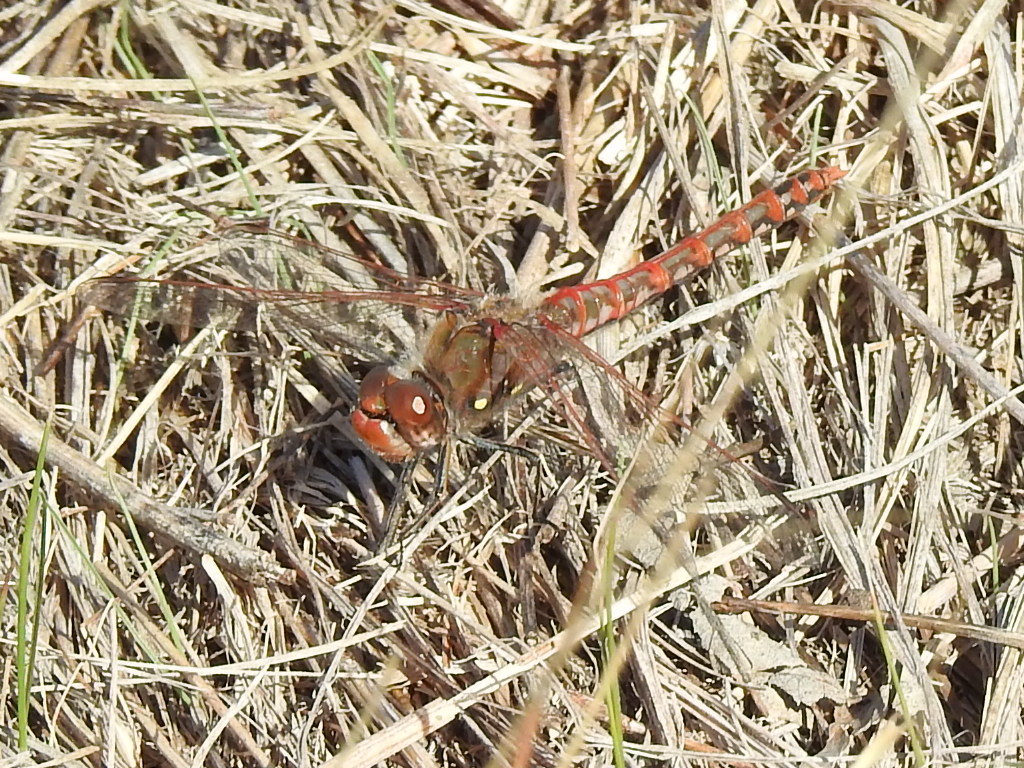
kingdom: Animalia
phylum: Arthropoda
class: Insecta
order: Odonata
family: Libellulidae
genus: Sympetrum
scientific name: Sympetrum corruptum
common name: Variegated meadowhawk
